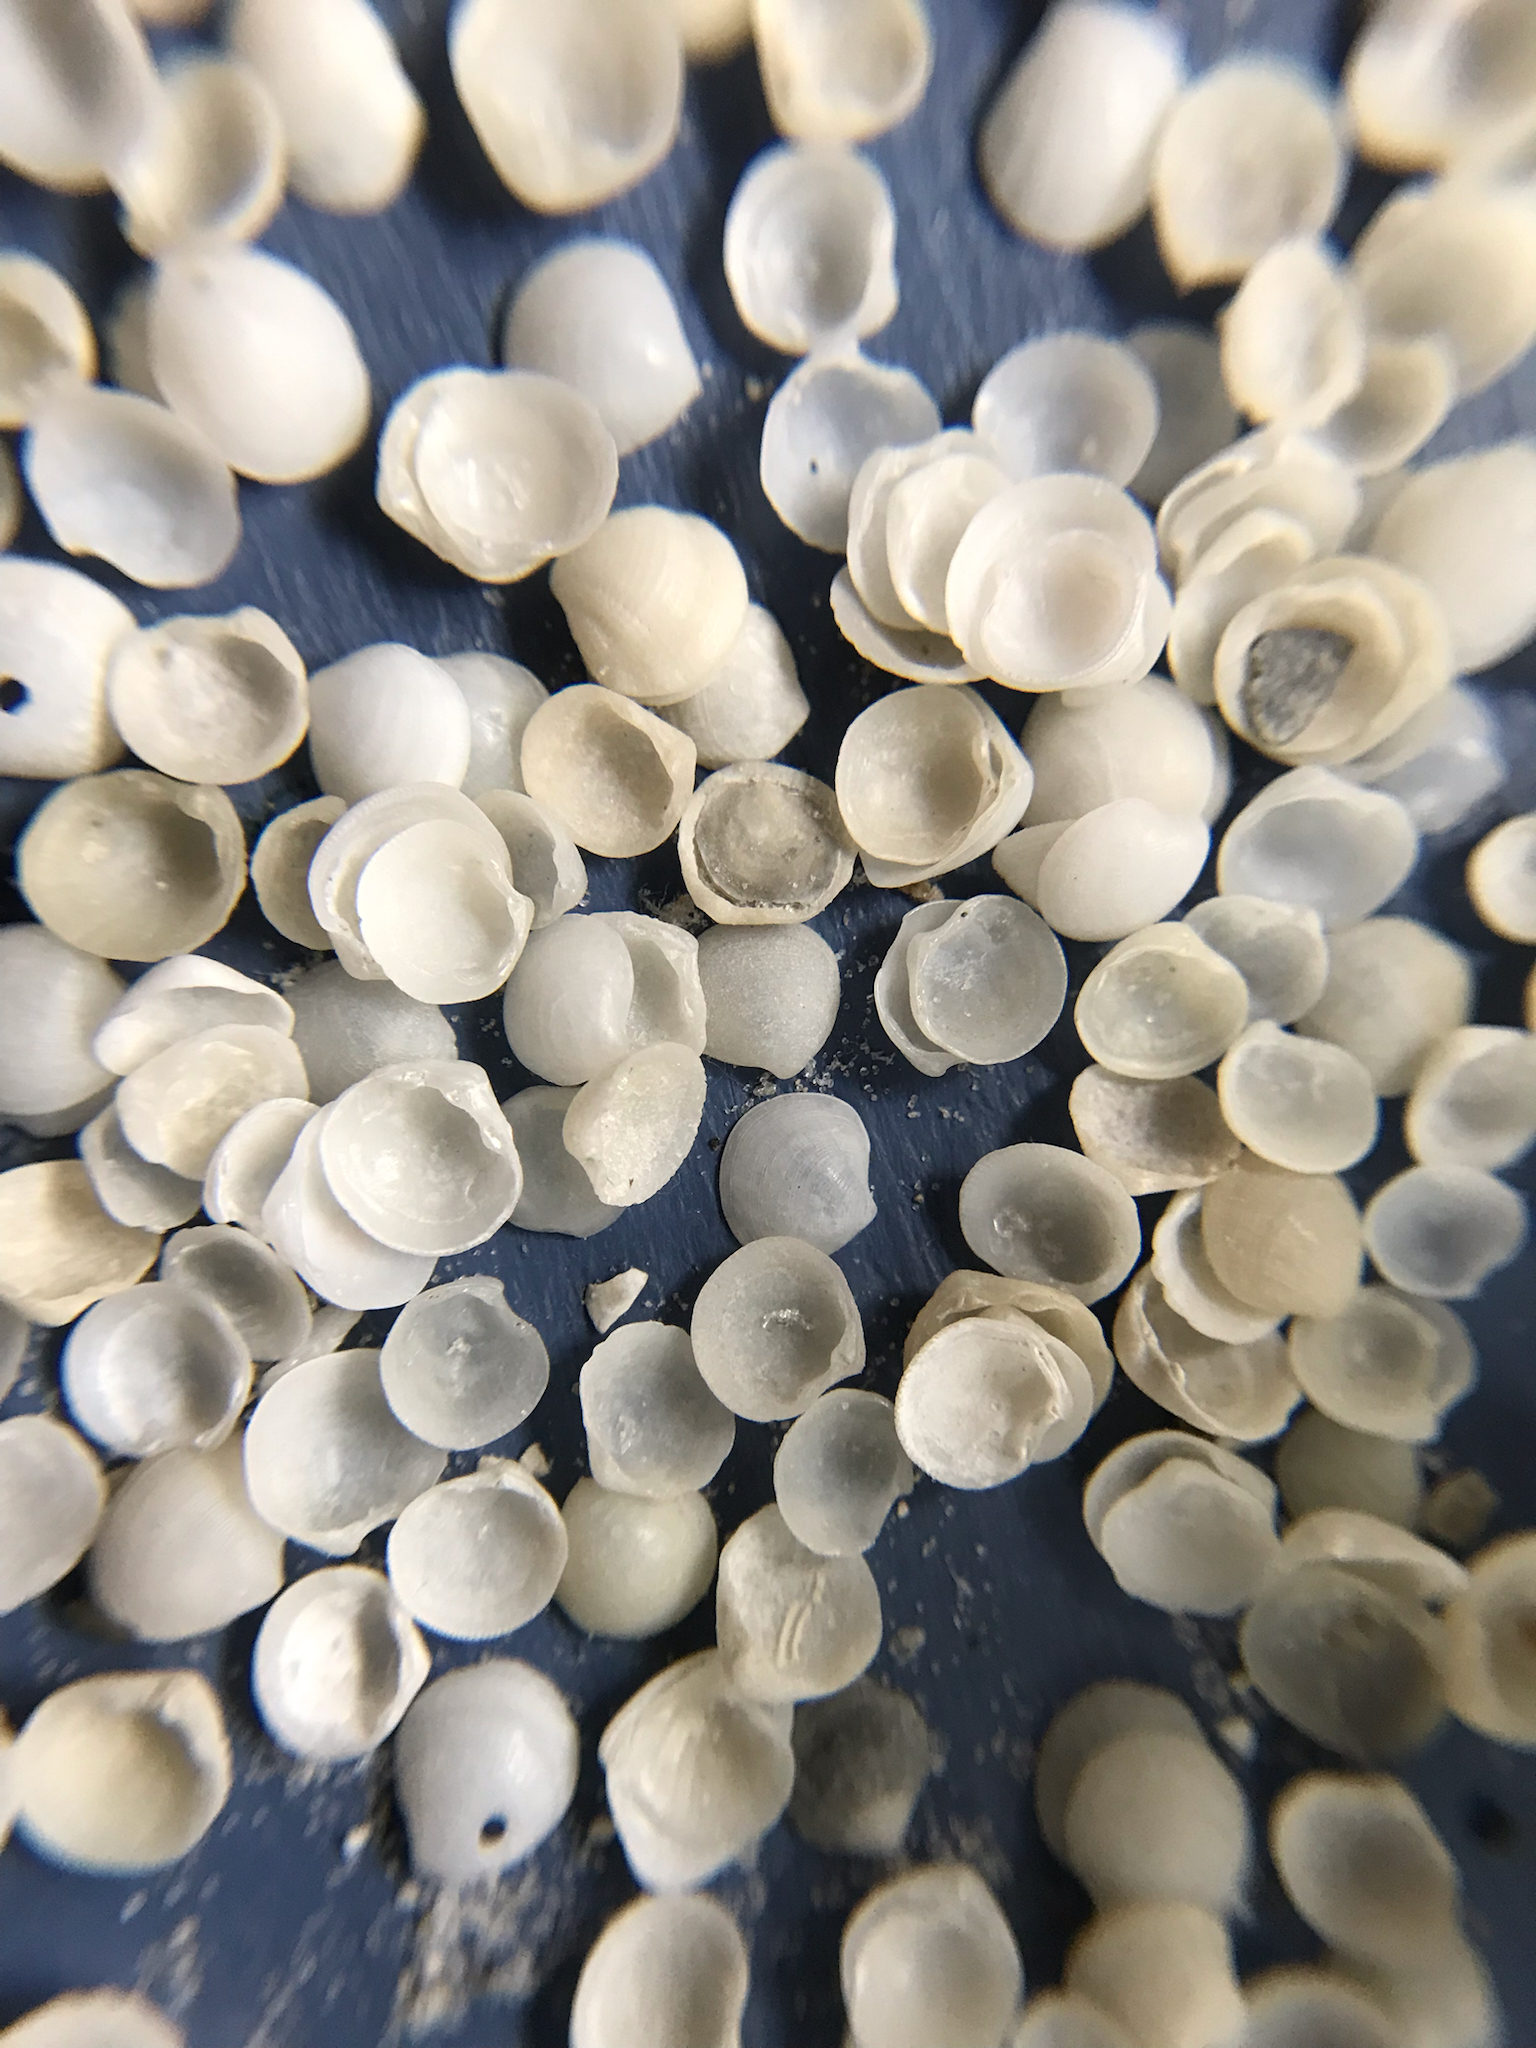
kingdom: Animalia
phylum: Mollusca
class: Bivalvia
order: Lucinida
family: Lucinidae
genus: Parvilucina
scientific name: Parvilucina crenella
